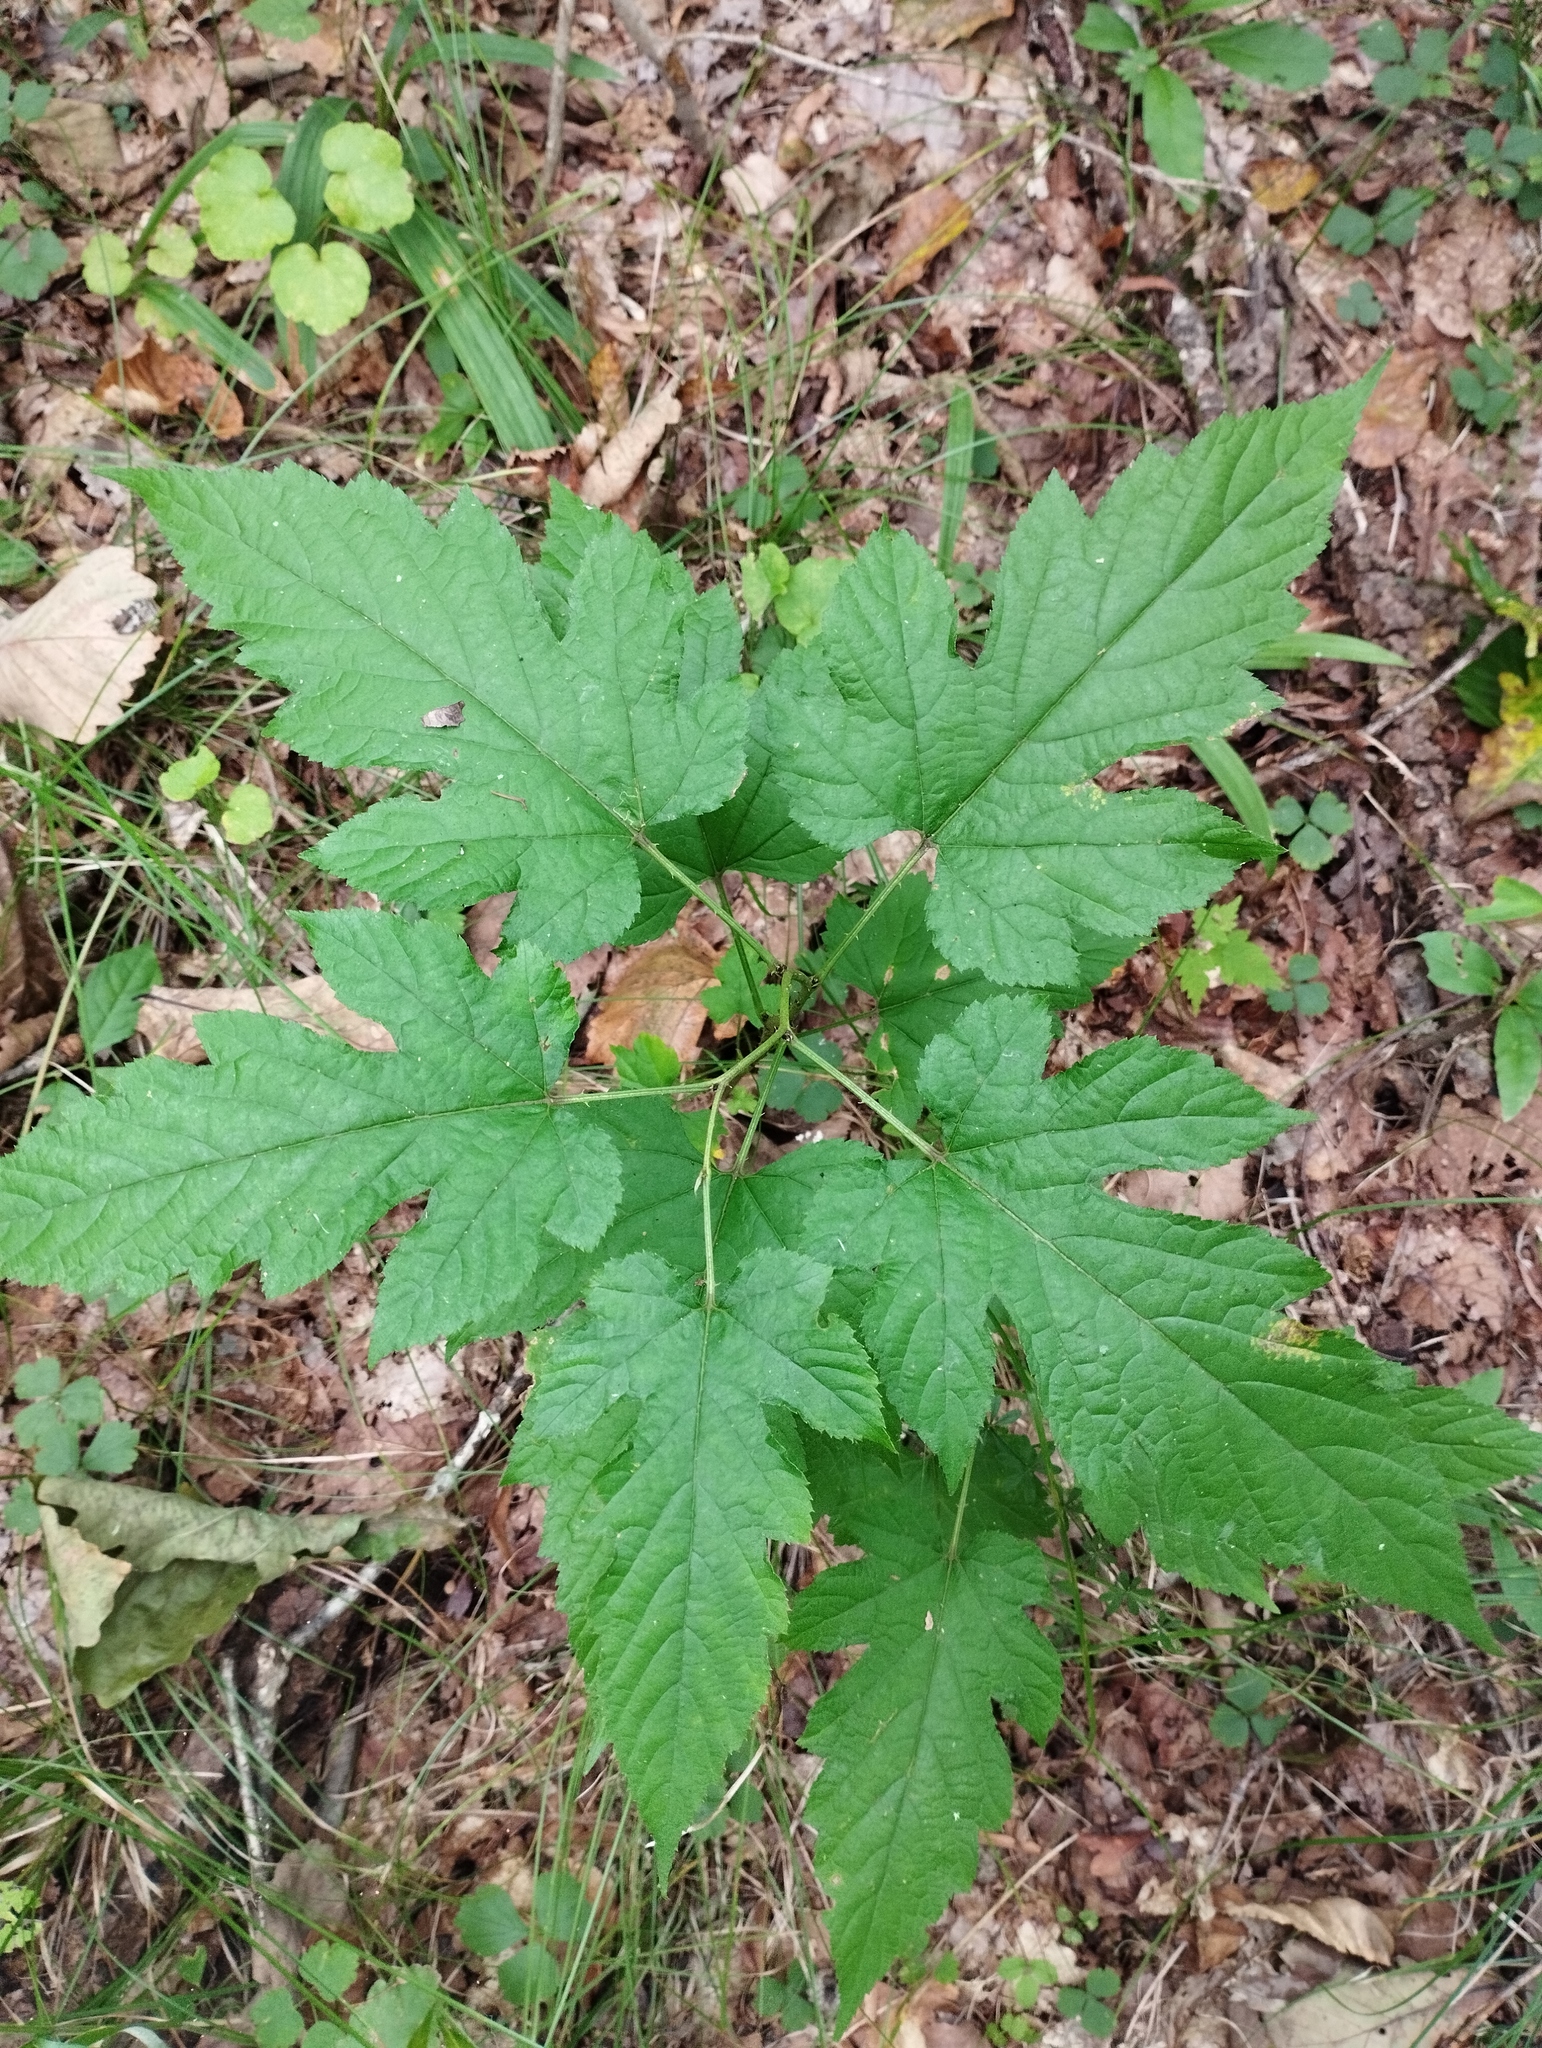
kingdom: Plantae
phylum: Tracheophyta
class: Magnoliopsida
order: Rosales
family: Rosaceae
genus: Rubus
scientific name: Rubus crataegifolius
